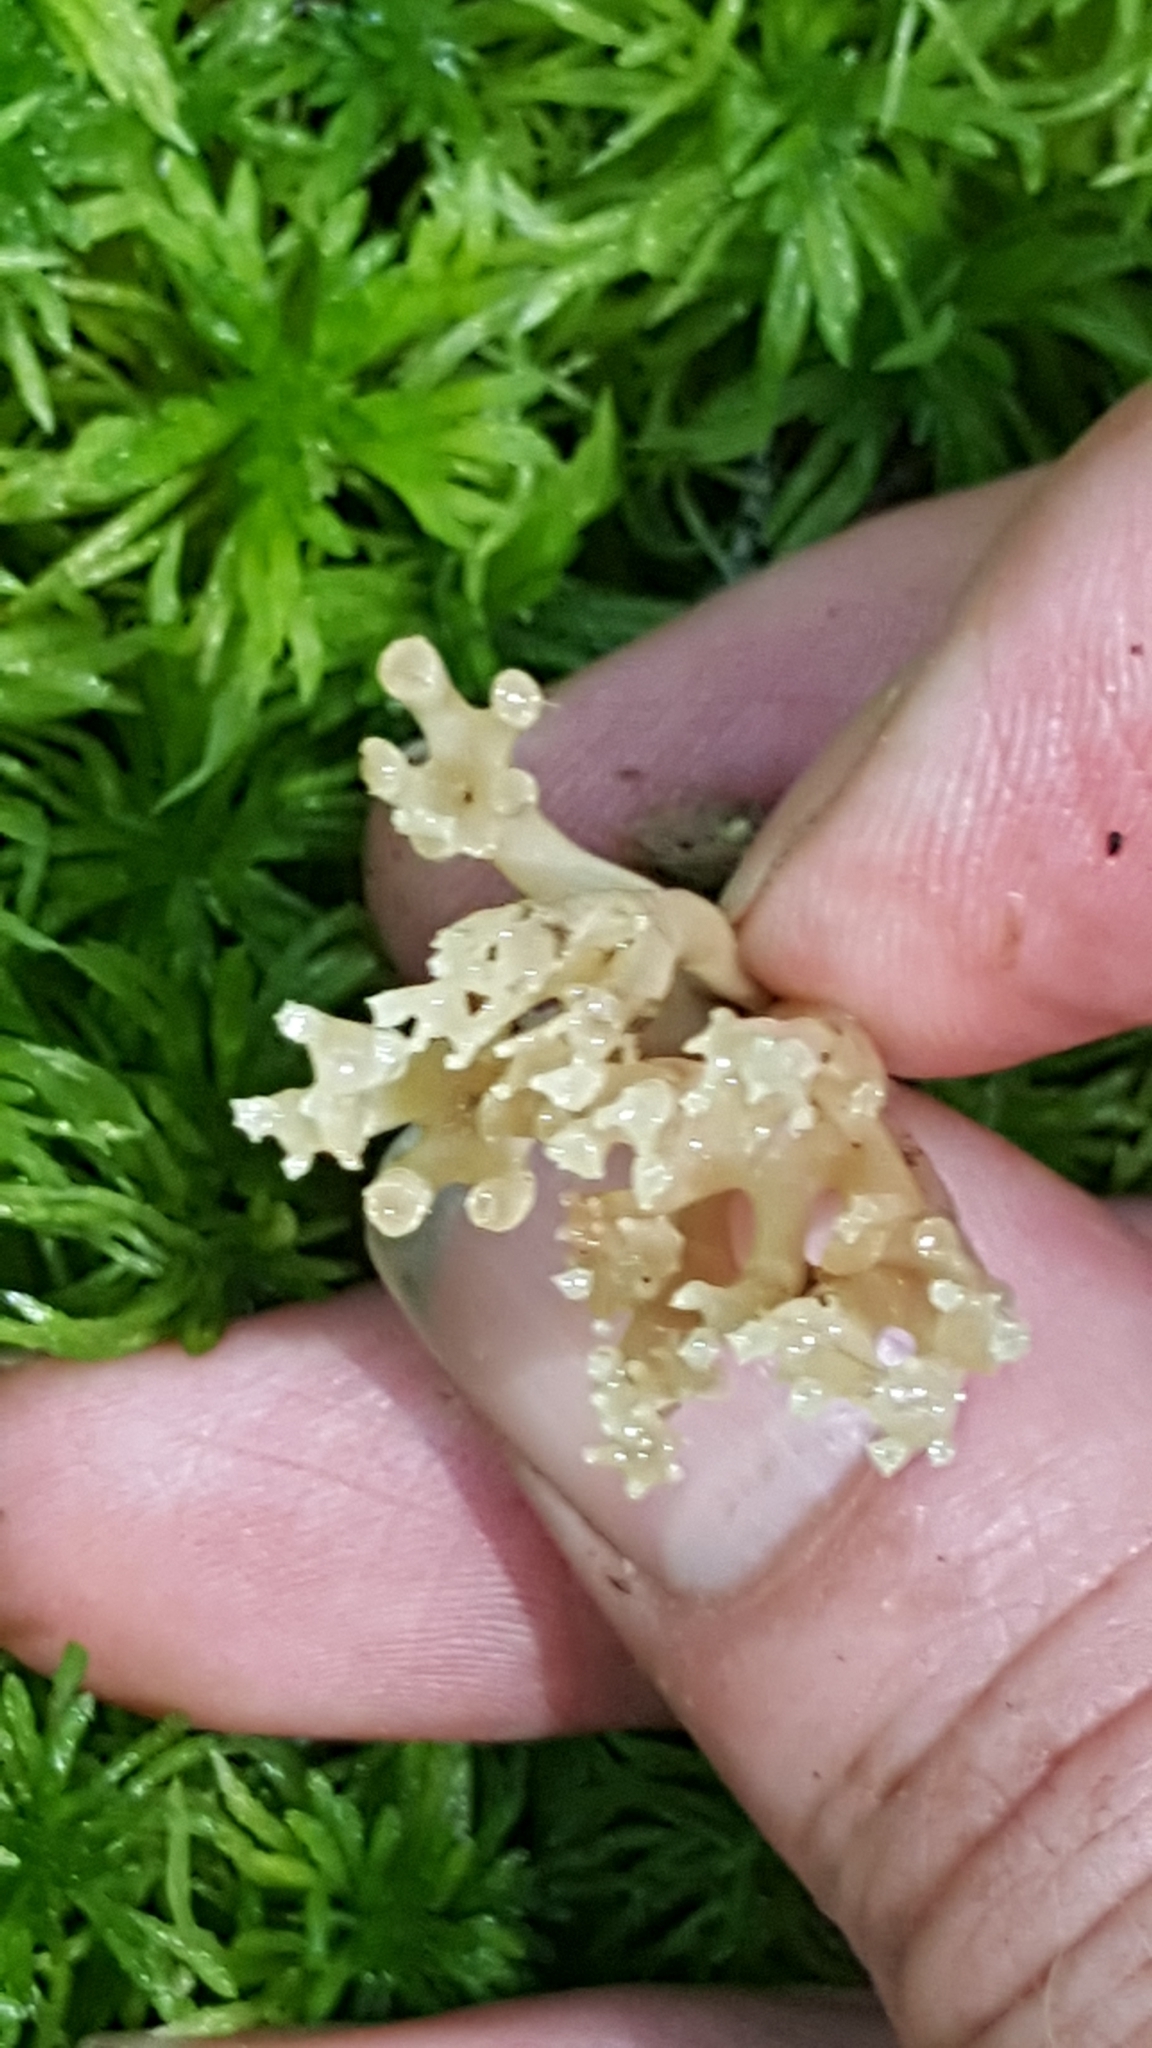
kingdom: Fungi
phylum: Basidiomycota
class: Agaricomycetes
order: Russulales
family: Auriscalpiaceae
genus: Artomyces
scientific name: Artomyces pyxidatus
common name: Crown-tipped coral fungus
